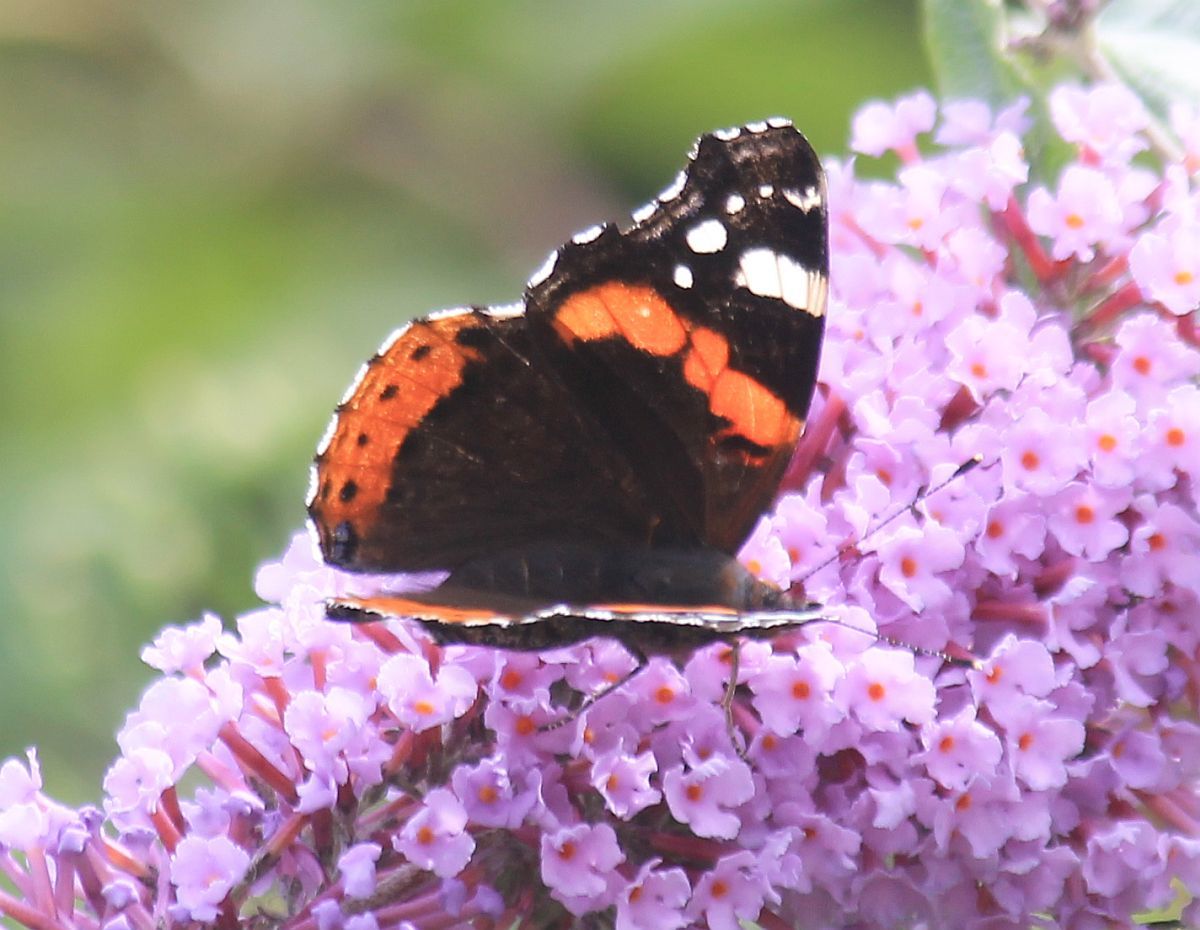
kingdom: Animalia
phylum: Arthropoda
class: Insecta
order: Lepidoptera
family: Nymphalidae
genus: Vanessa
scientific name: Vanessa atalanta
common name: Red admiral
